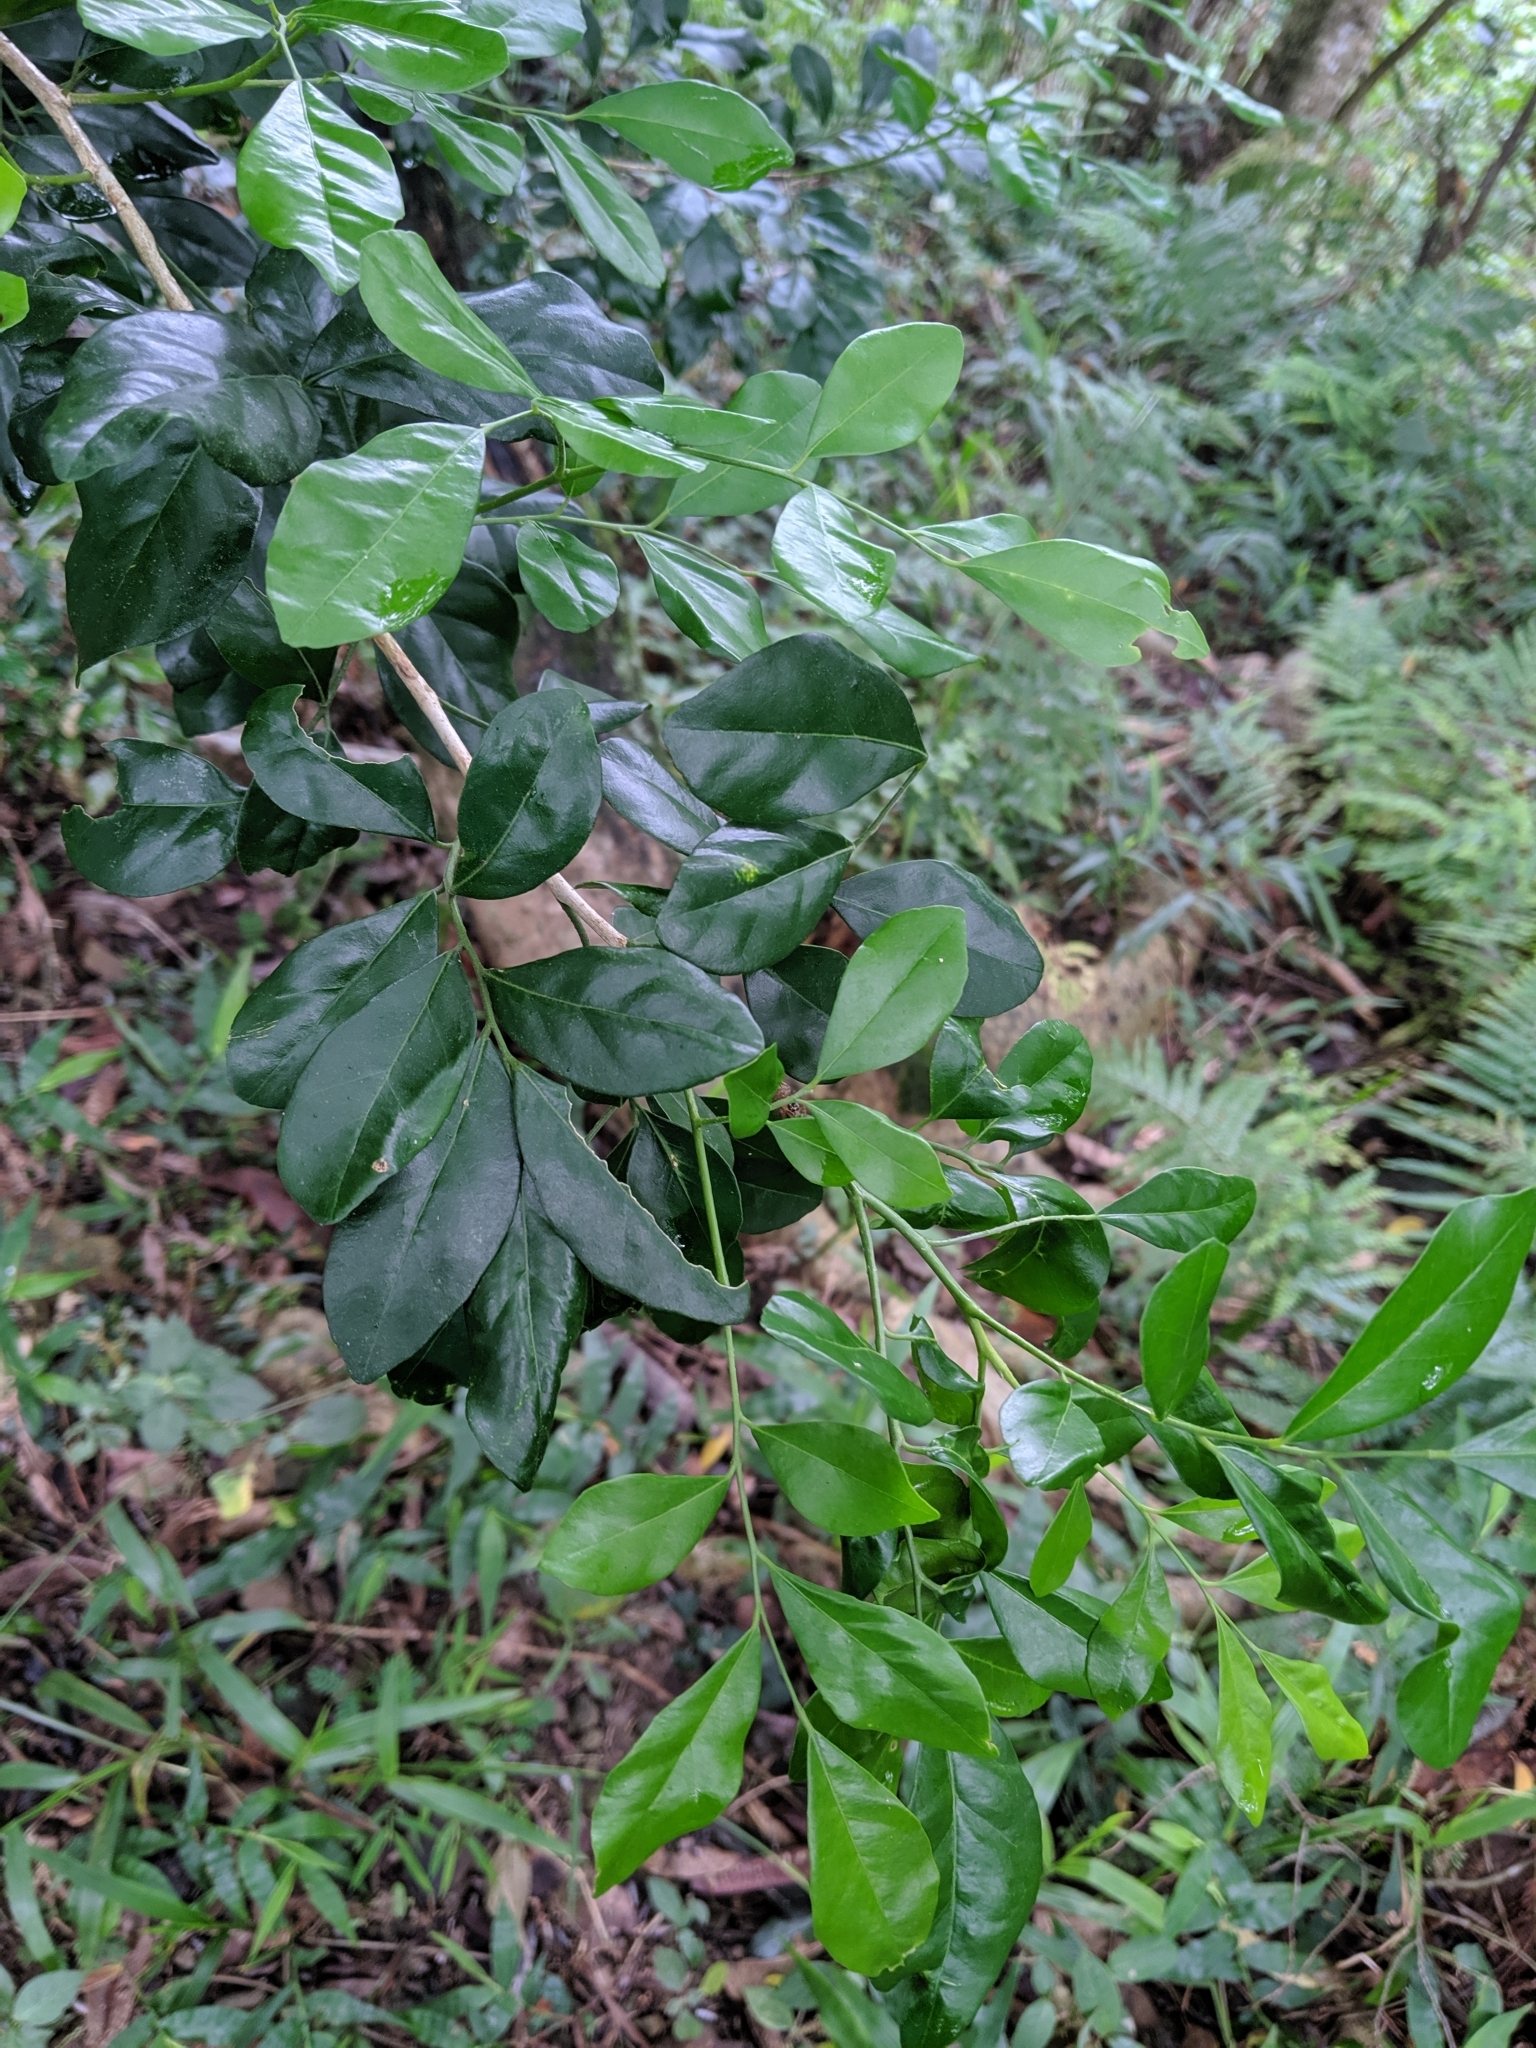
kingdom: Plantae
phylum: Tracheophyta
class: Magnoliopsida
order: Sapindales
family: Rutaceae
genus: Murraya
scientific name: Murraya paniculata
